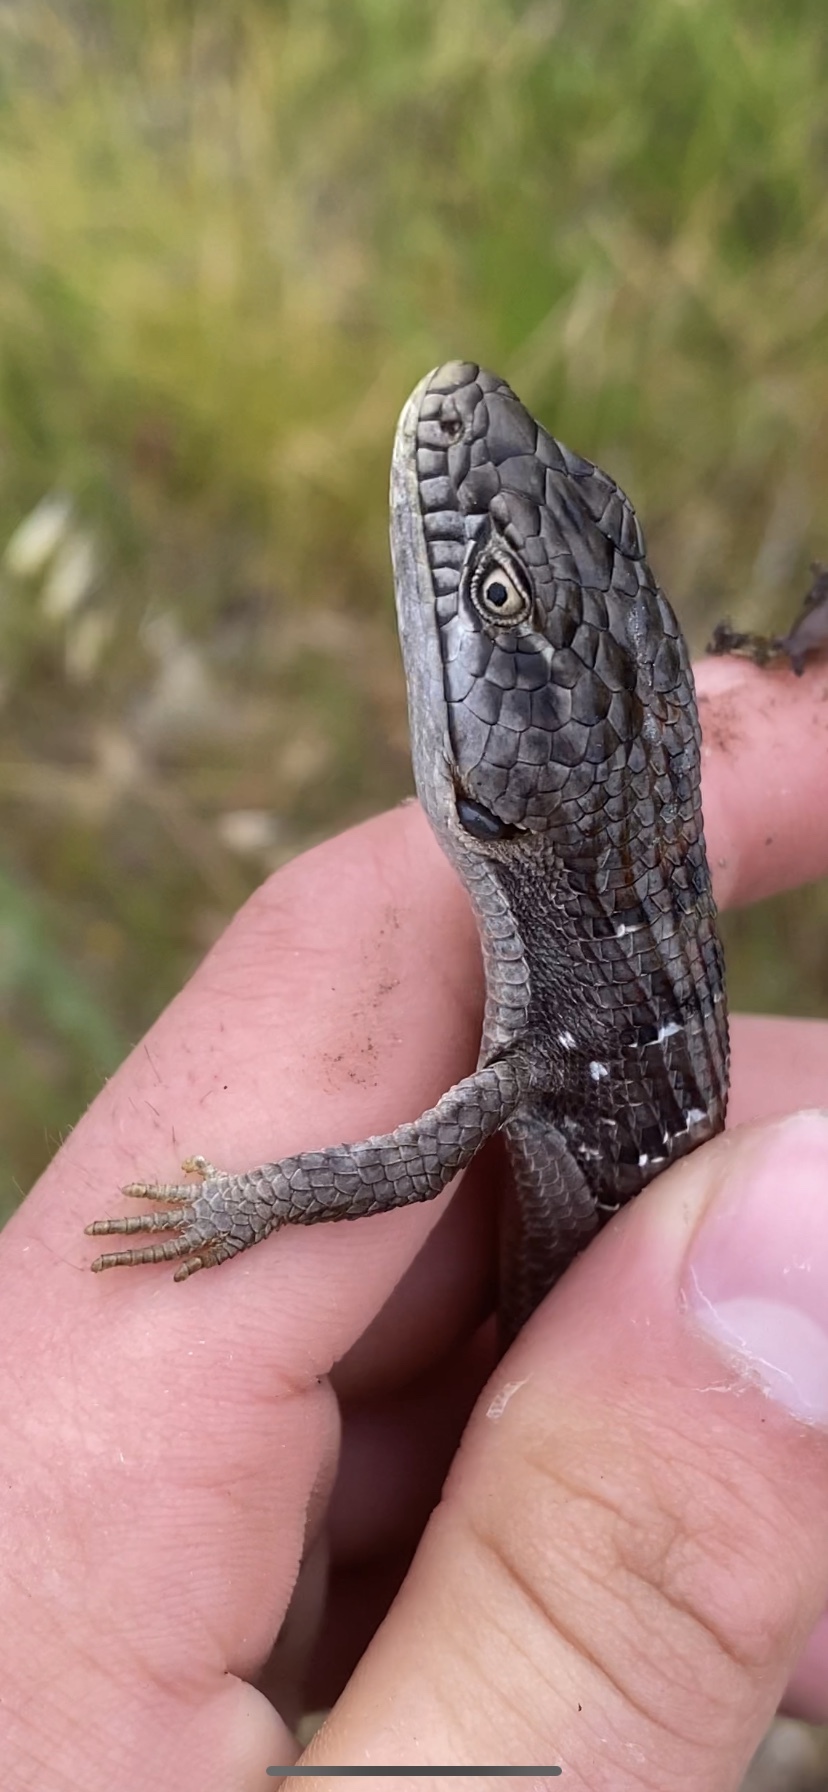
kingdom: Animalia
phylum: Chordata
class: Squamata
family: Anguidae
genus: Elgaria
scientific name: Elgaria multicarinata
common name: Southern alligator lizard
